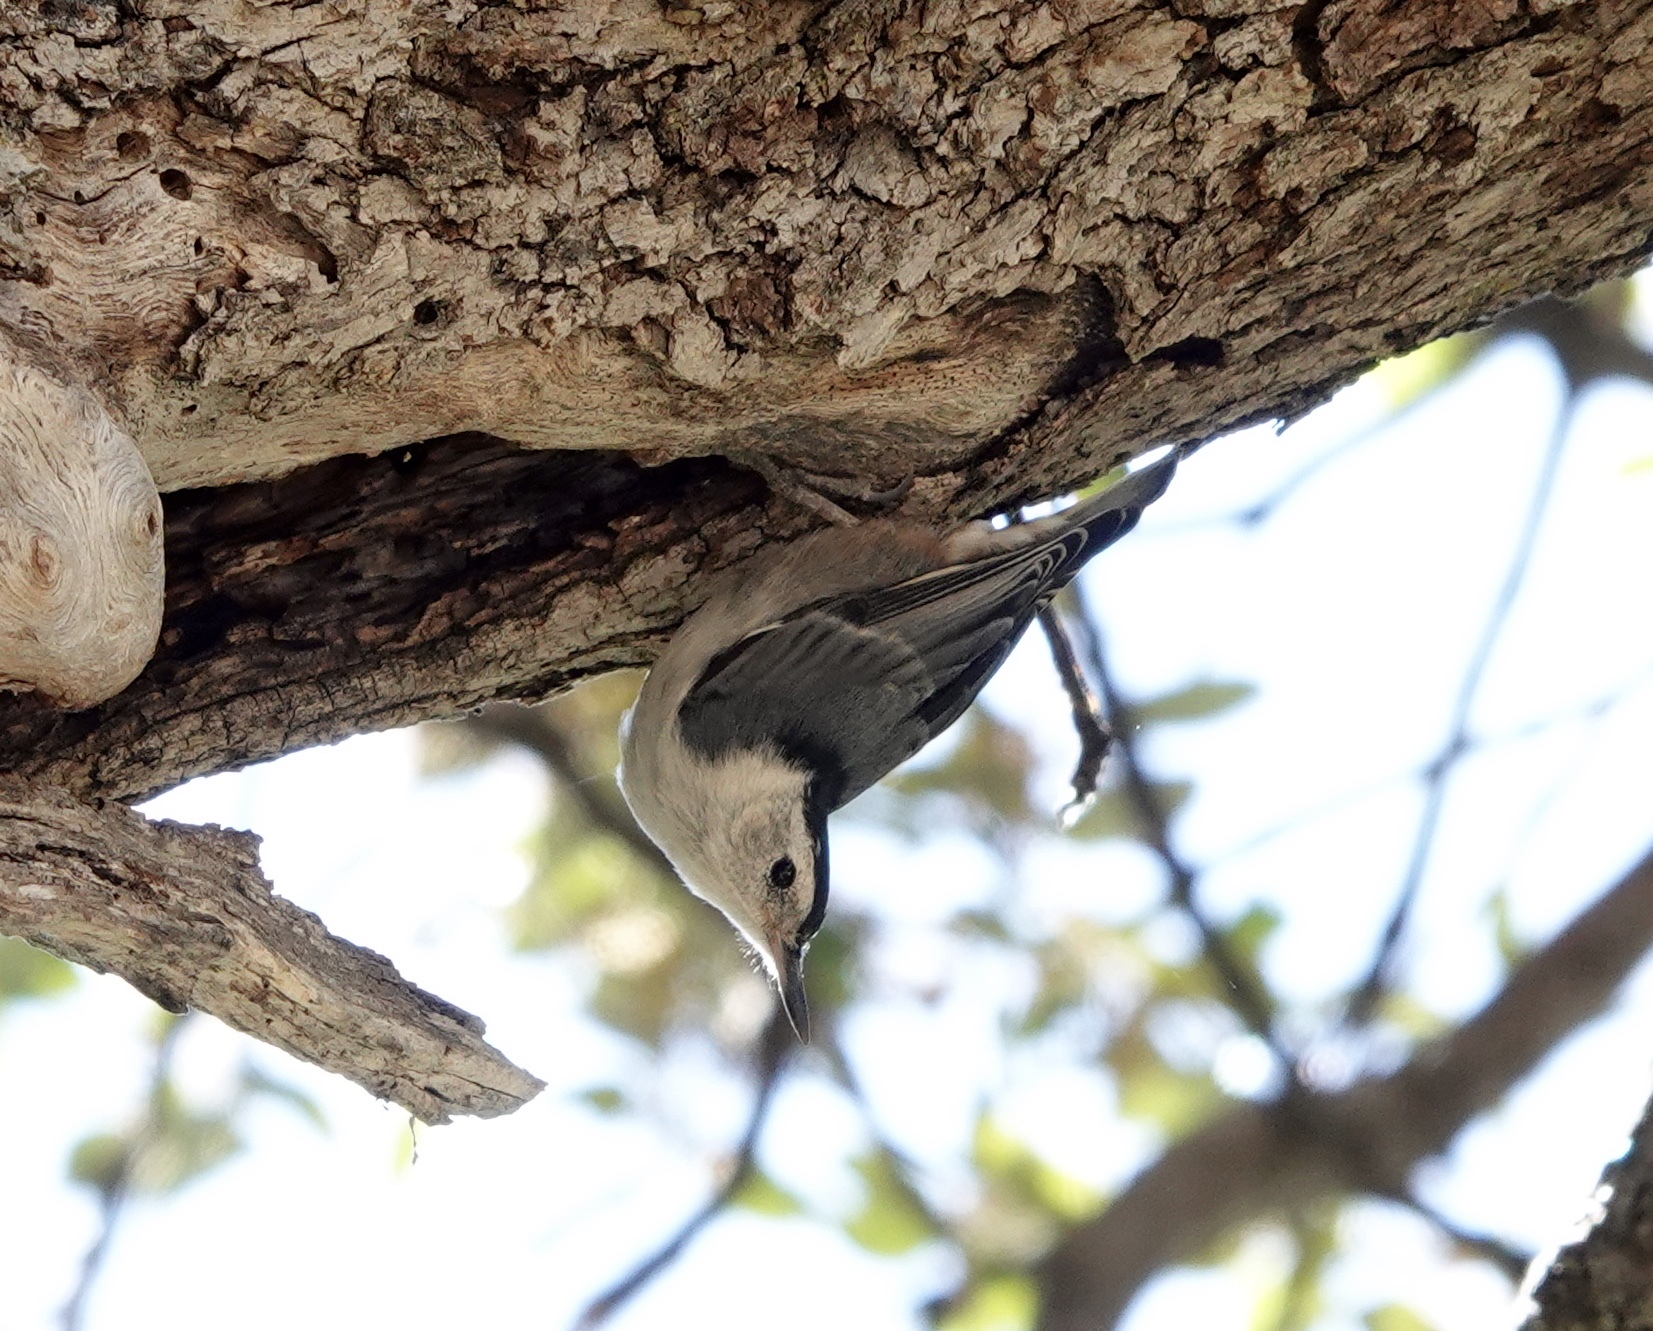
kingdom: Animalia
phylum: Chordata
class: Aves
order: Passeriformes
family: Sittidae
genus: Sitta
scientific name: Sitta carolinensis
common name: White-breasted nuthatch
